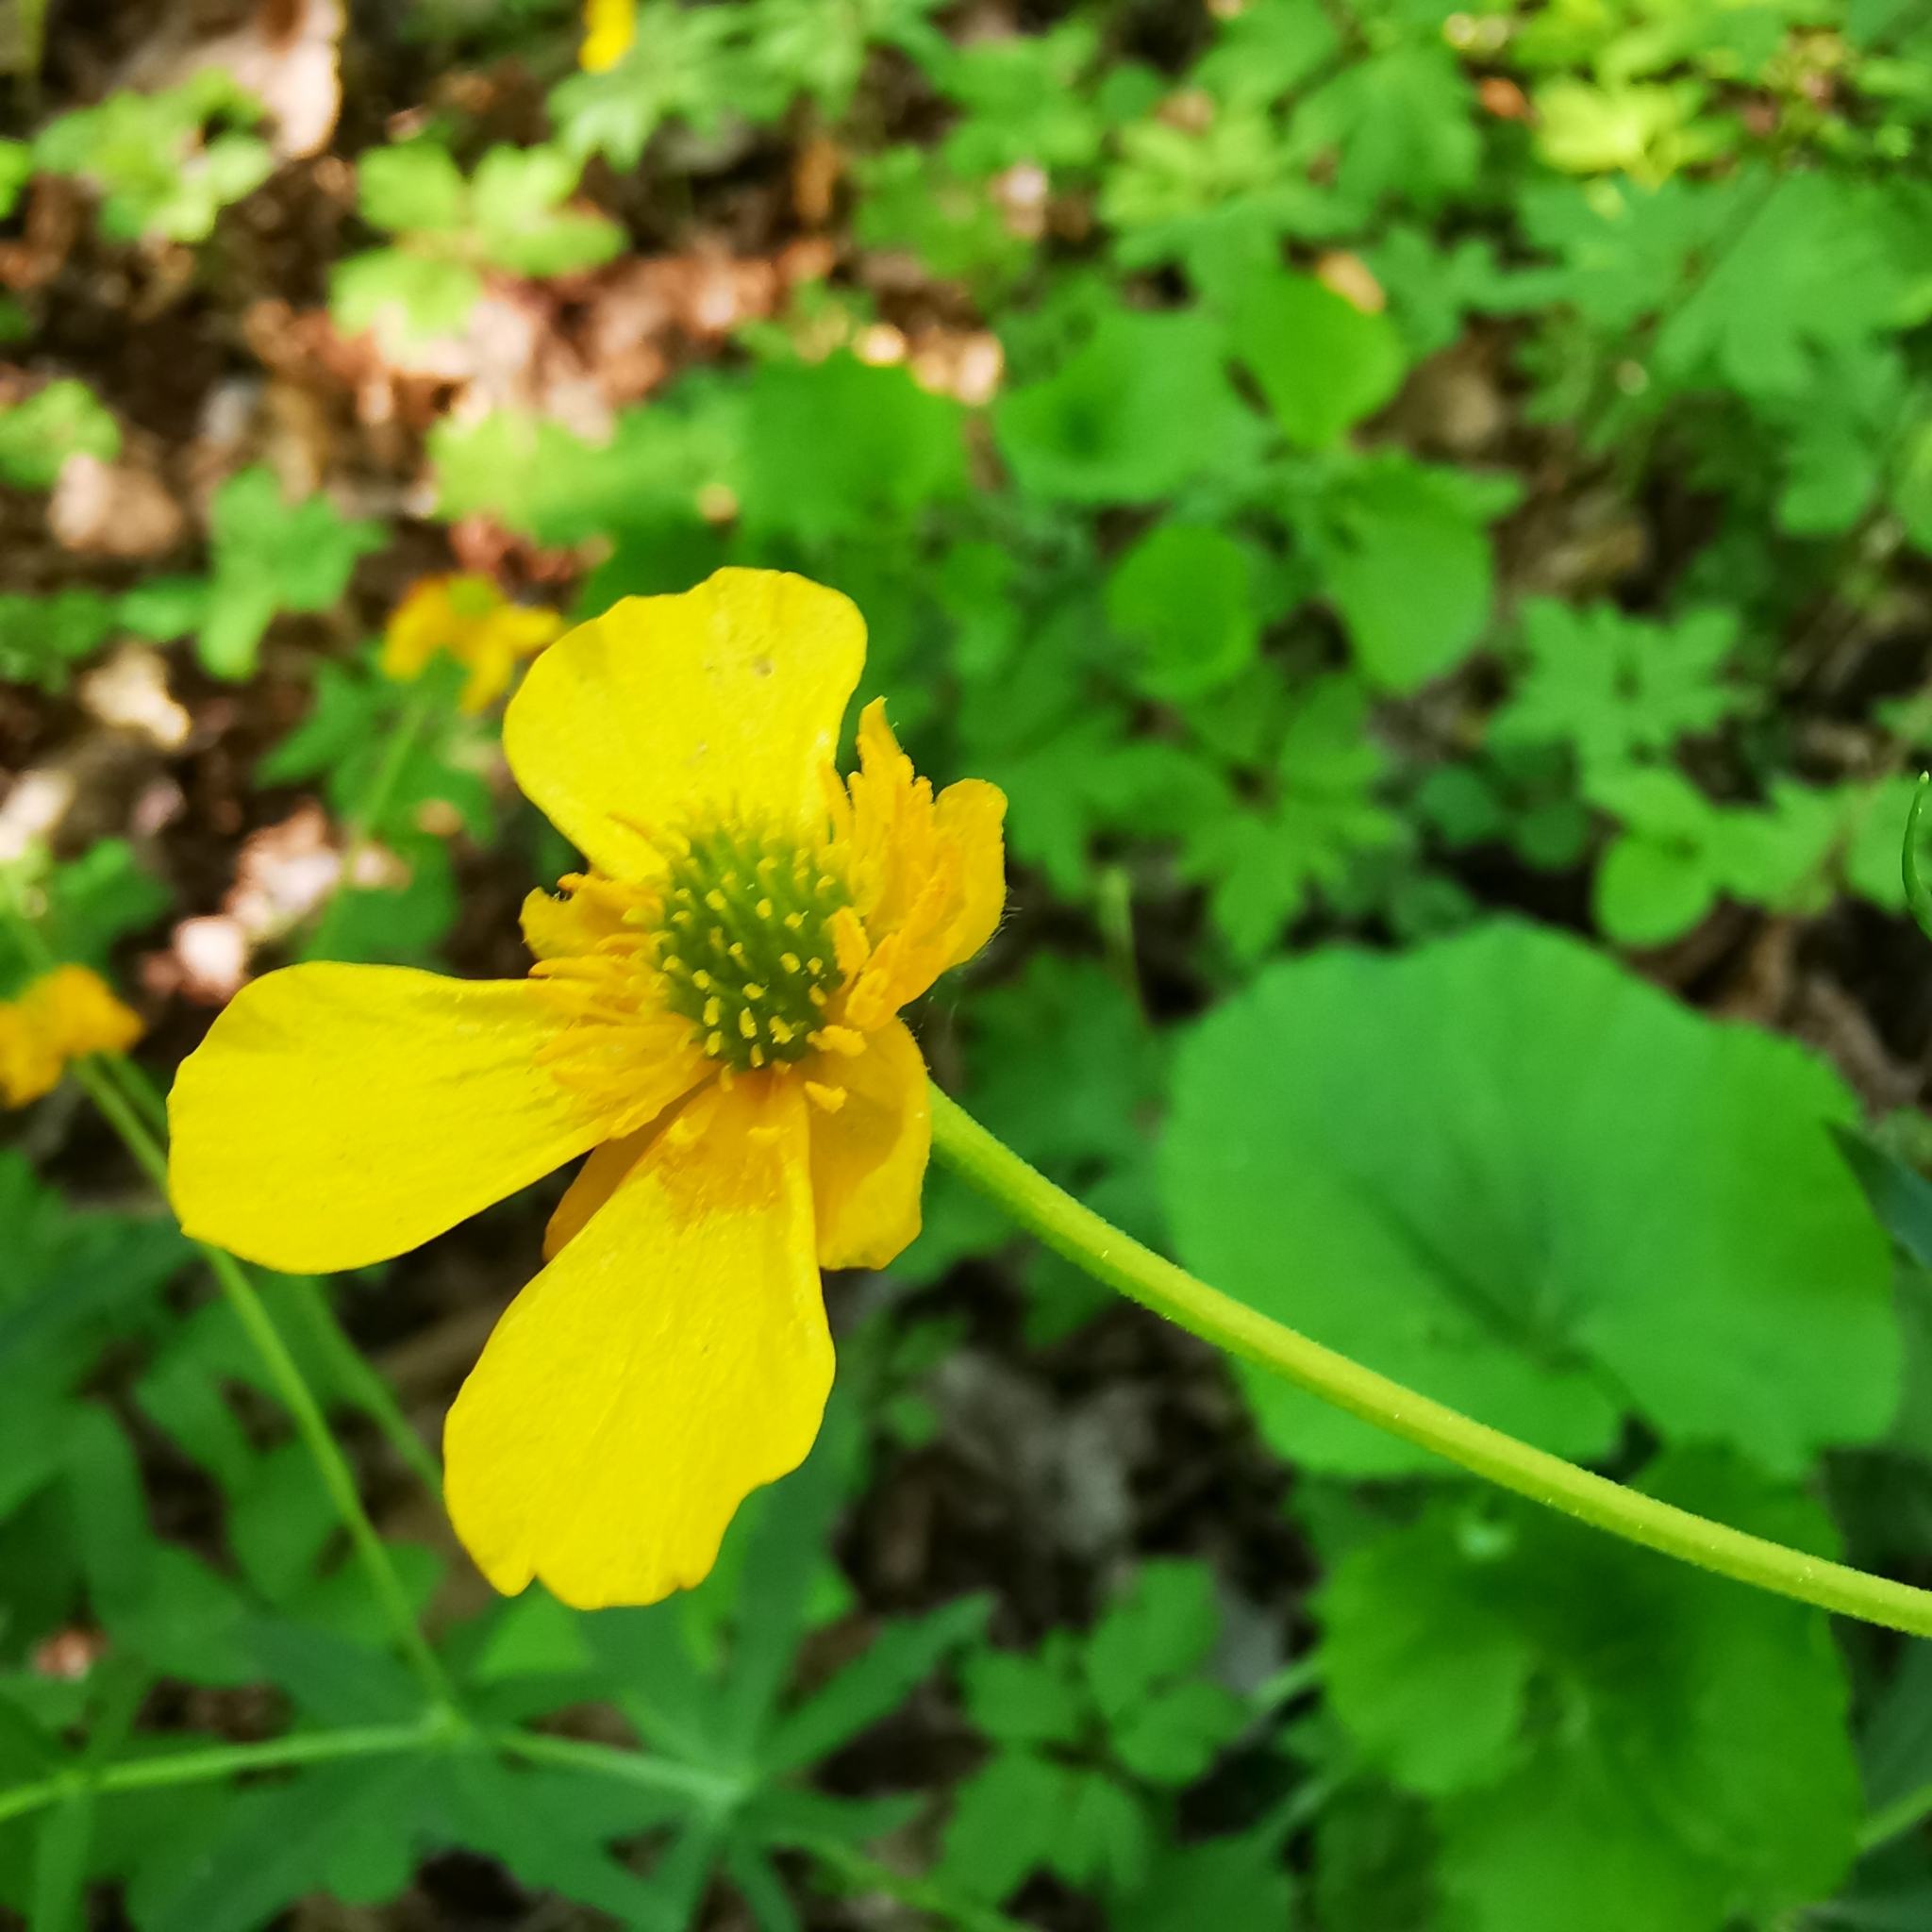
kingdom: Plantae
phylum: Tracheophyta
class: Magnoliopsida
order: Ranunculales
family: Ranunculaceae
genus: Ranunculus
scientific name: Ranunculus cassubicus
